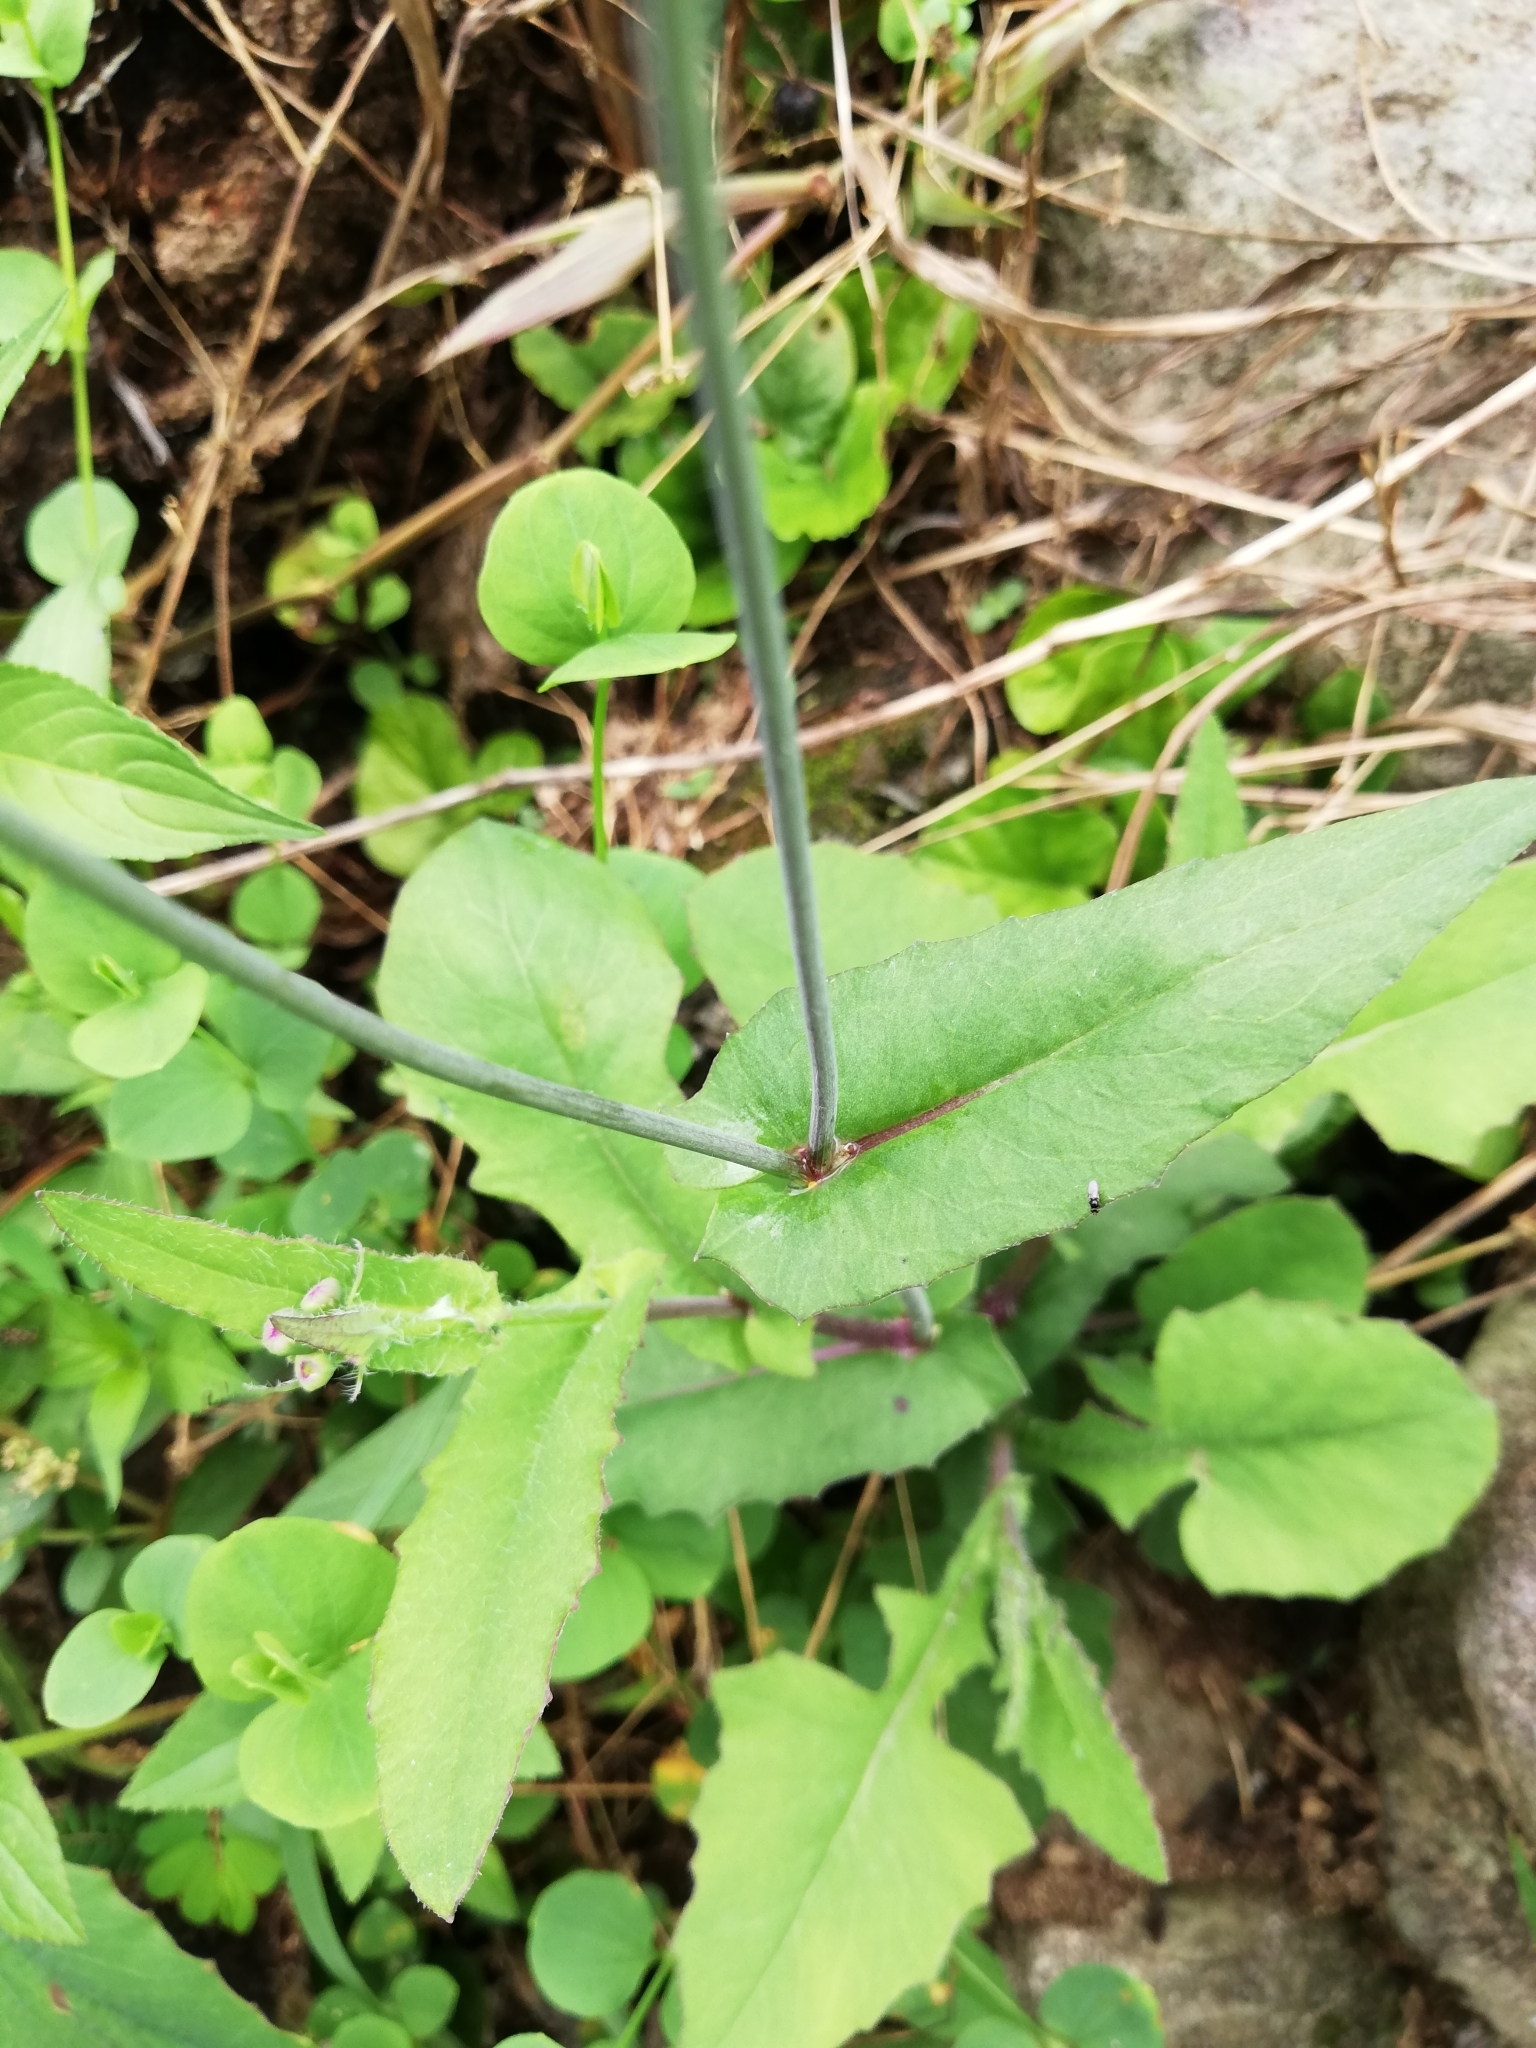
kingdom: Plantae
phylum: Tracheophyta
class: Magnoliopsida
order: Asterales
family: Asteraceae
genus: Emilia
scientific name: Emilia fosbergii
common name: Florida tasselflower
